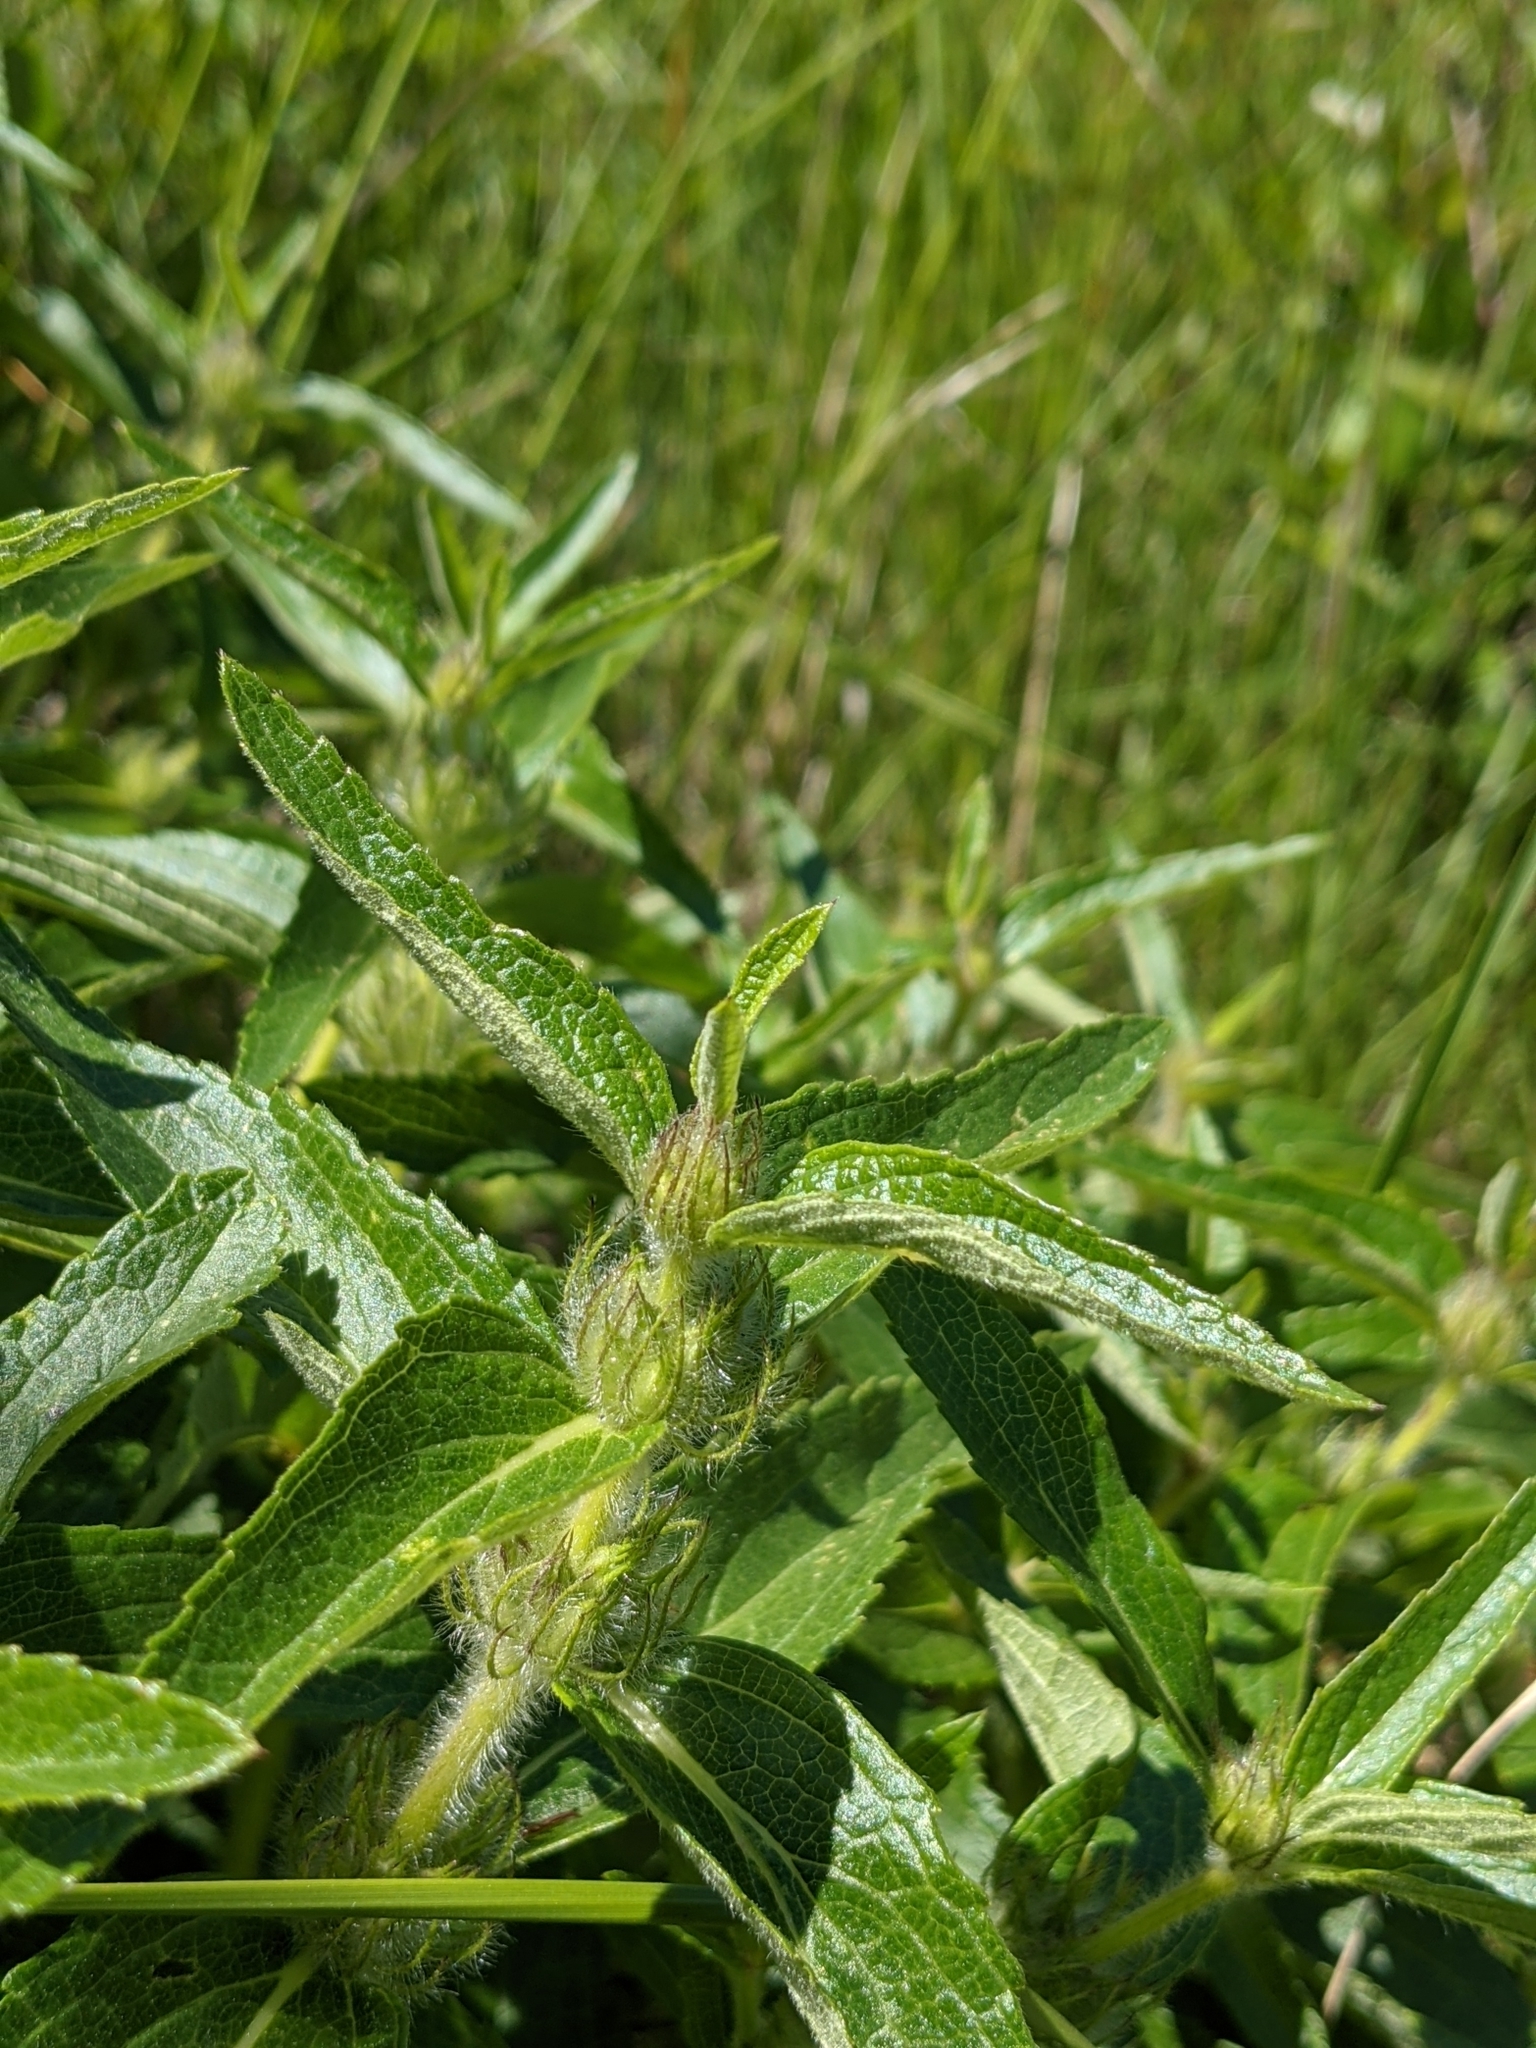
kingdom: Plantae
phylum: Tracheophyta
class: Magnoliopsida
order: Lamiales
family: Lamiaceae
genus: Phlomis
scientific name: Phlomis herba-venti
